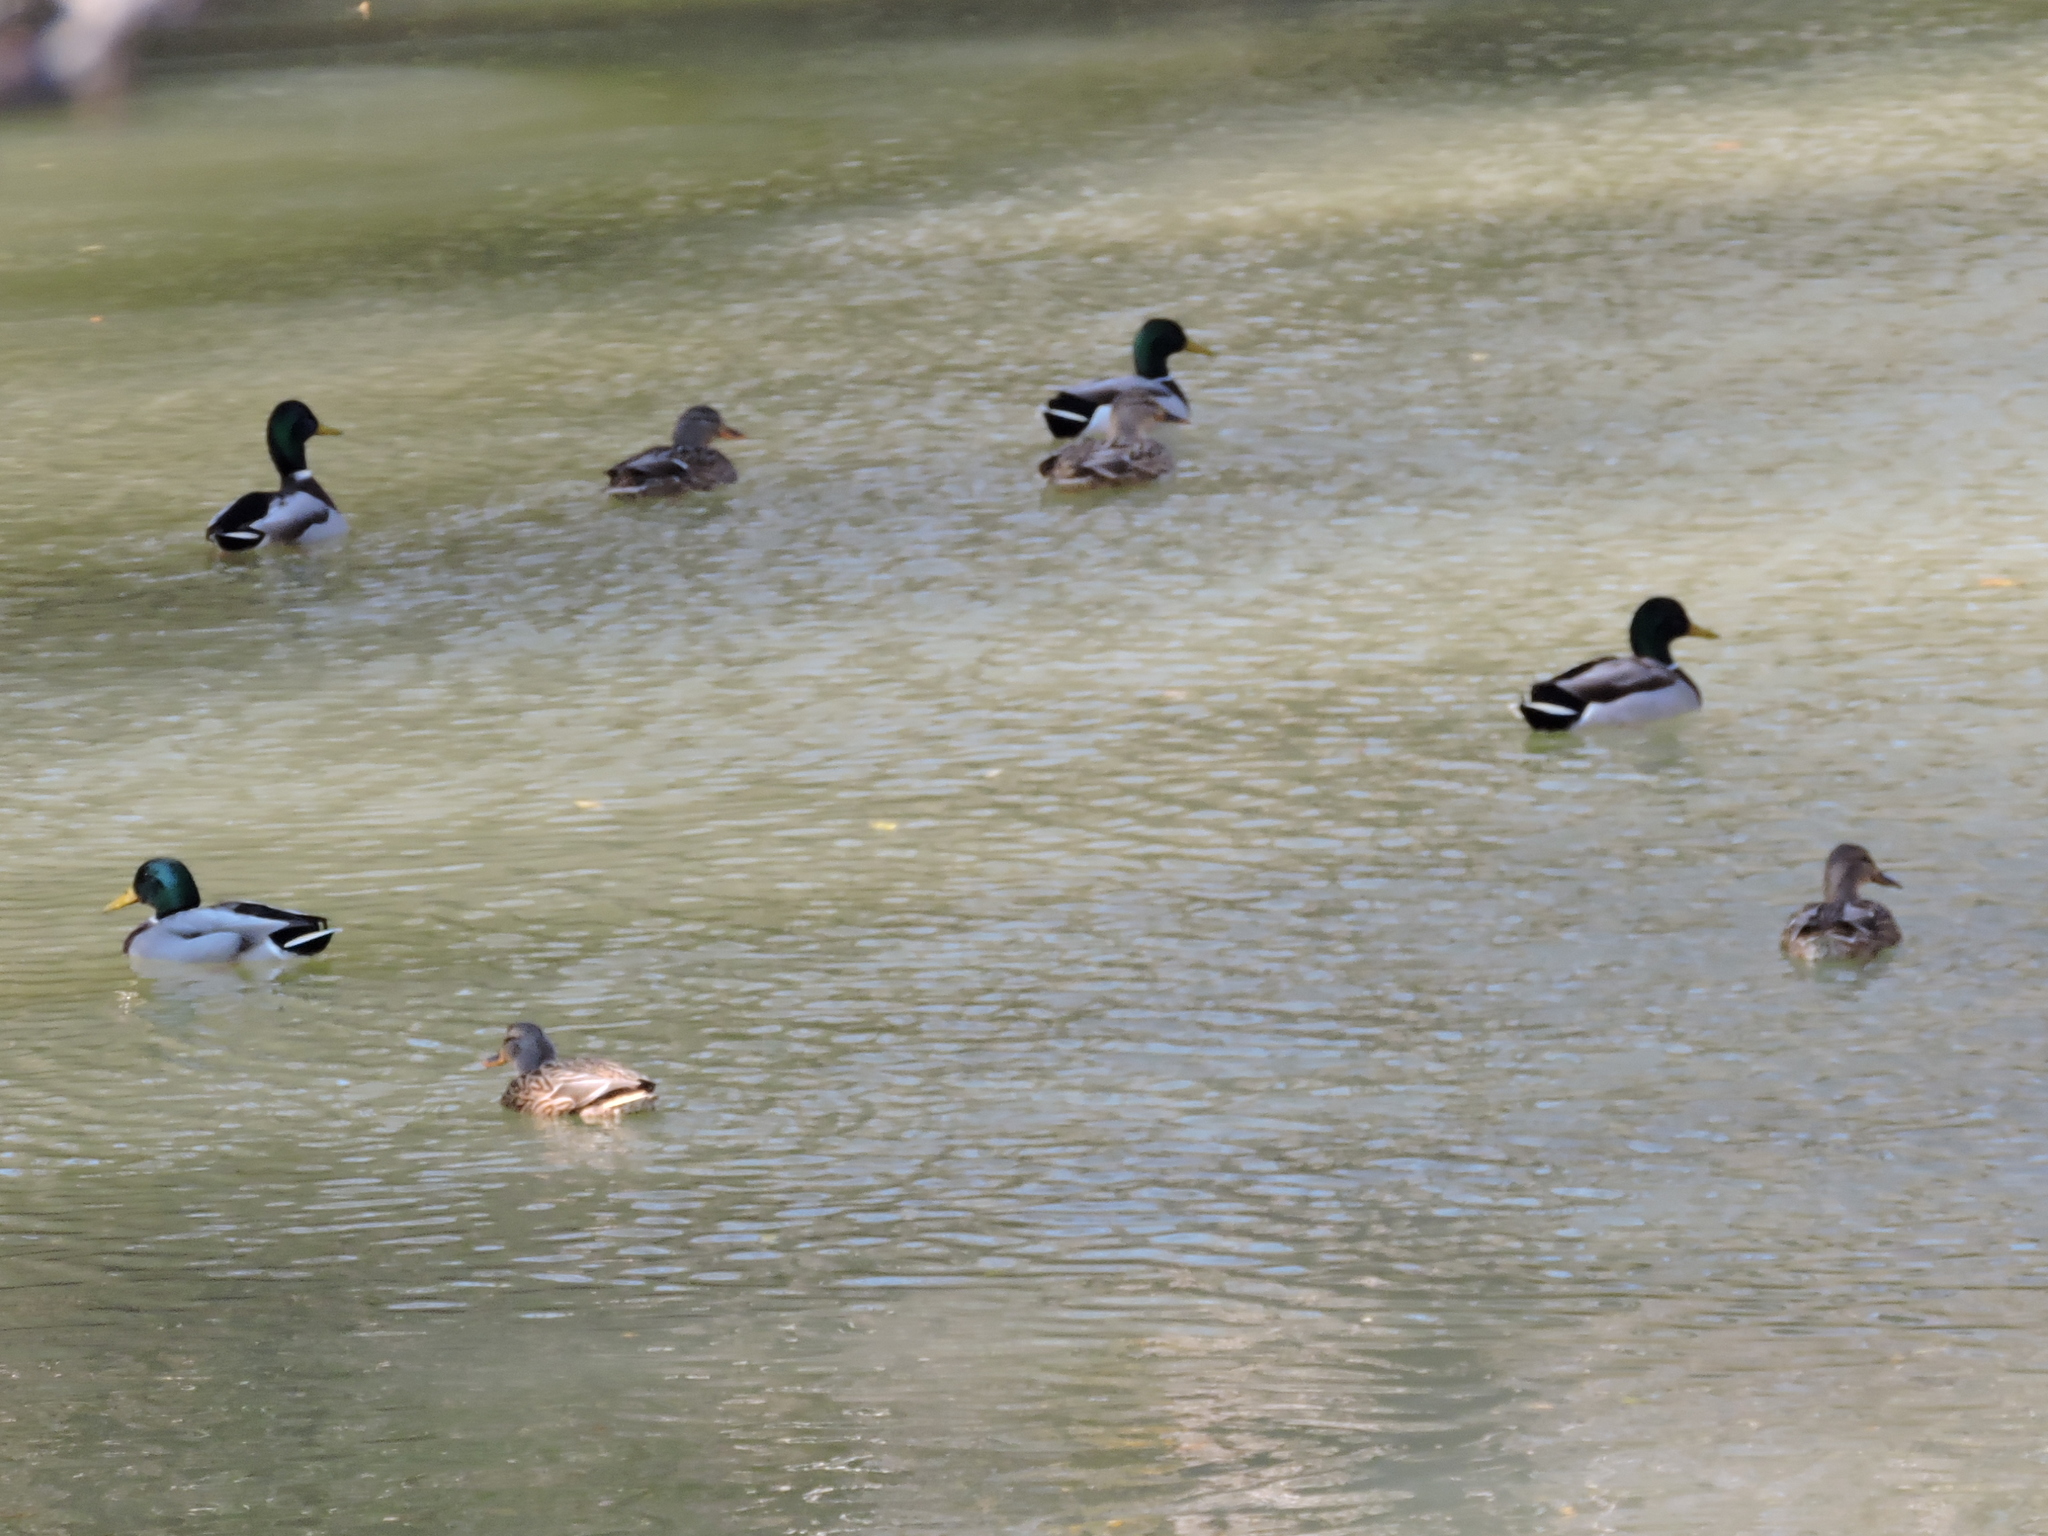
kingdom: Animalia
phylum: Chordata
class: Aves
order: Anseriformes
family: Anatidae
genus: Anas
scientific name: Anas platyrhynchos
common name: Mallard
